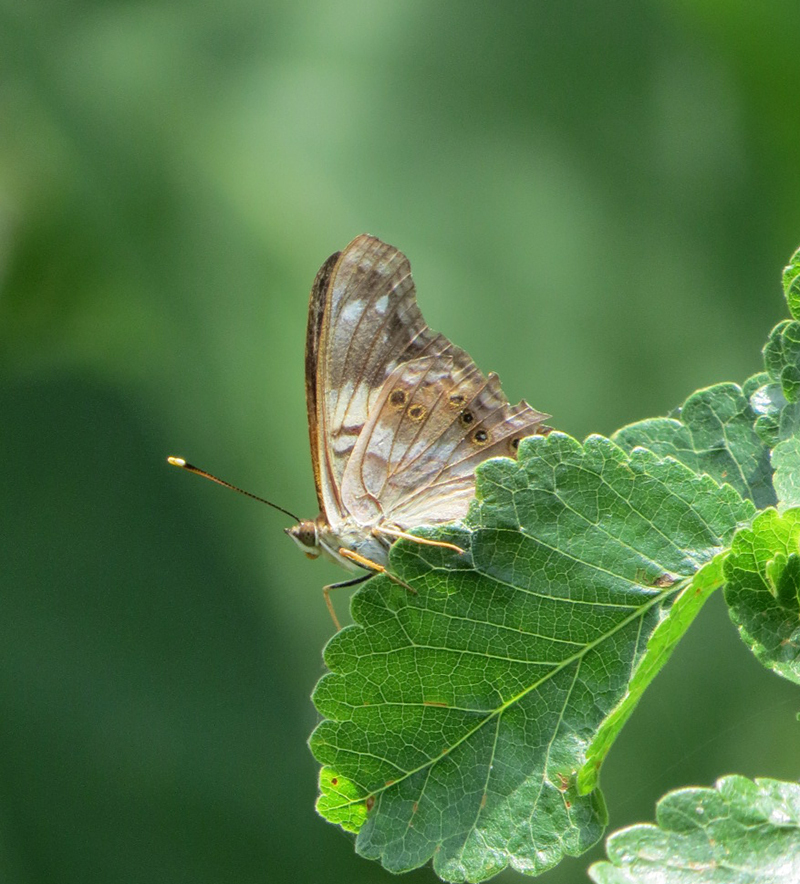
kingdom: Animalia
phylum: Arthropoda
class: Insecta
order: Lepidoptera
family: Nymphalidae
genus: Asterocampa
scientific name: Asterocampa idyja
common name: Dusky emperor
